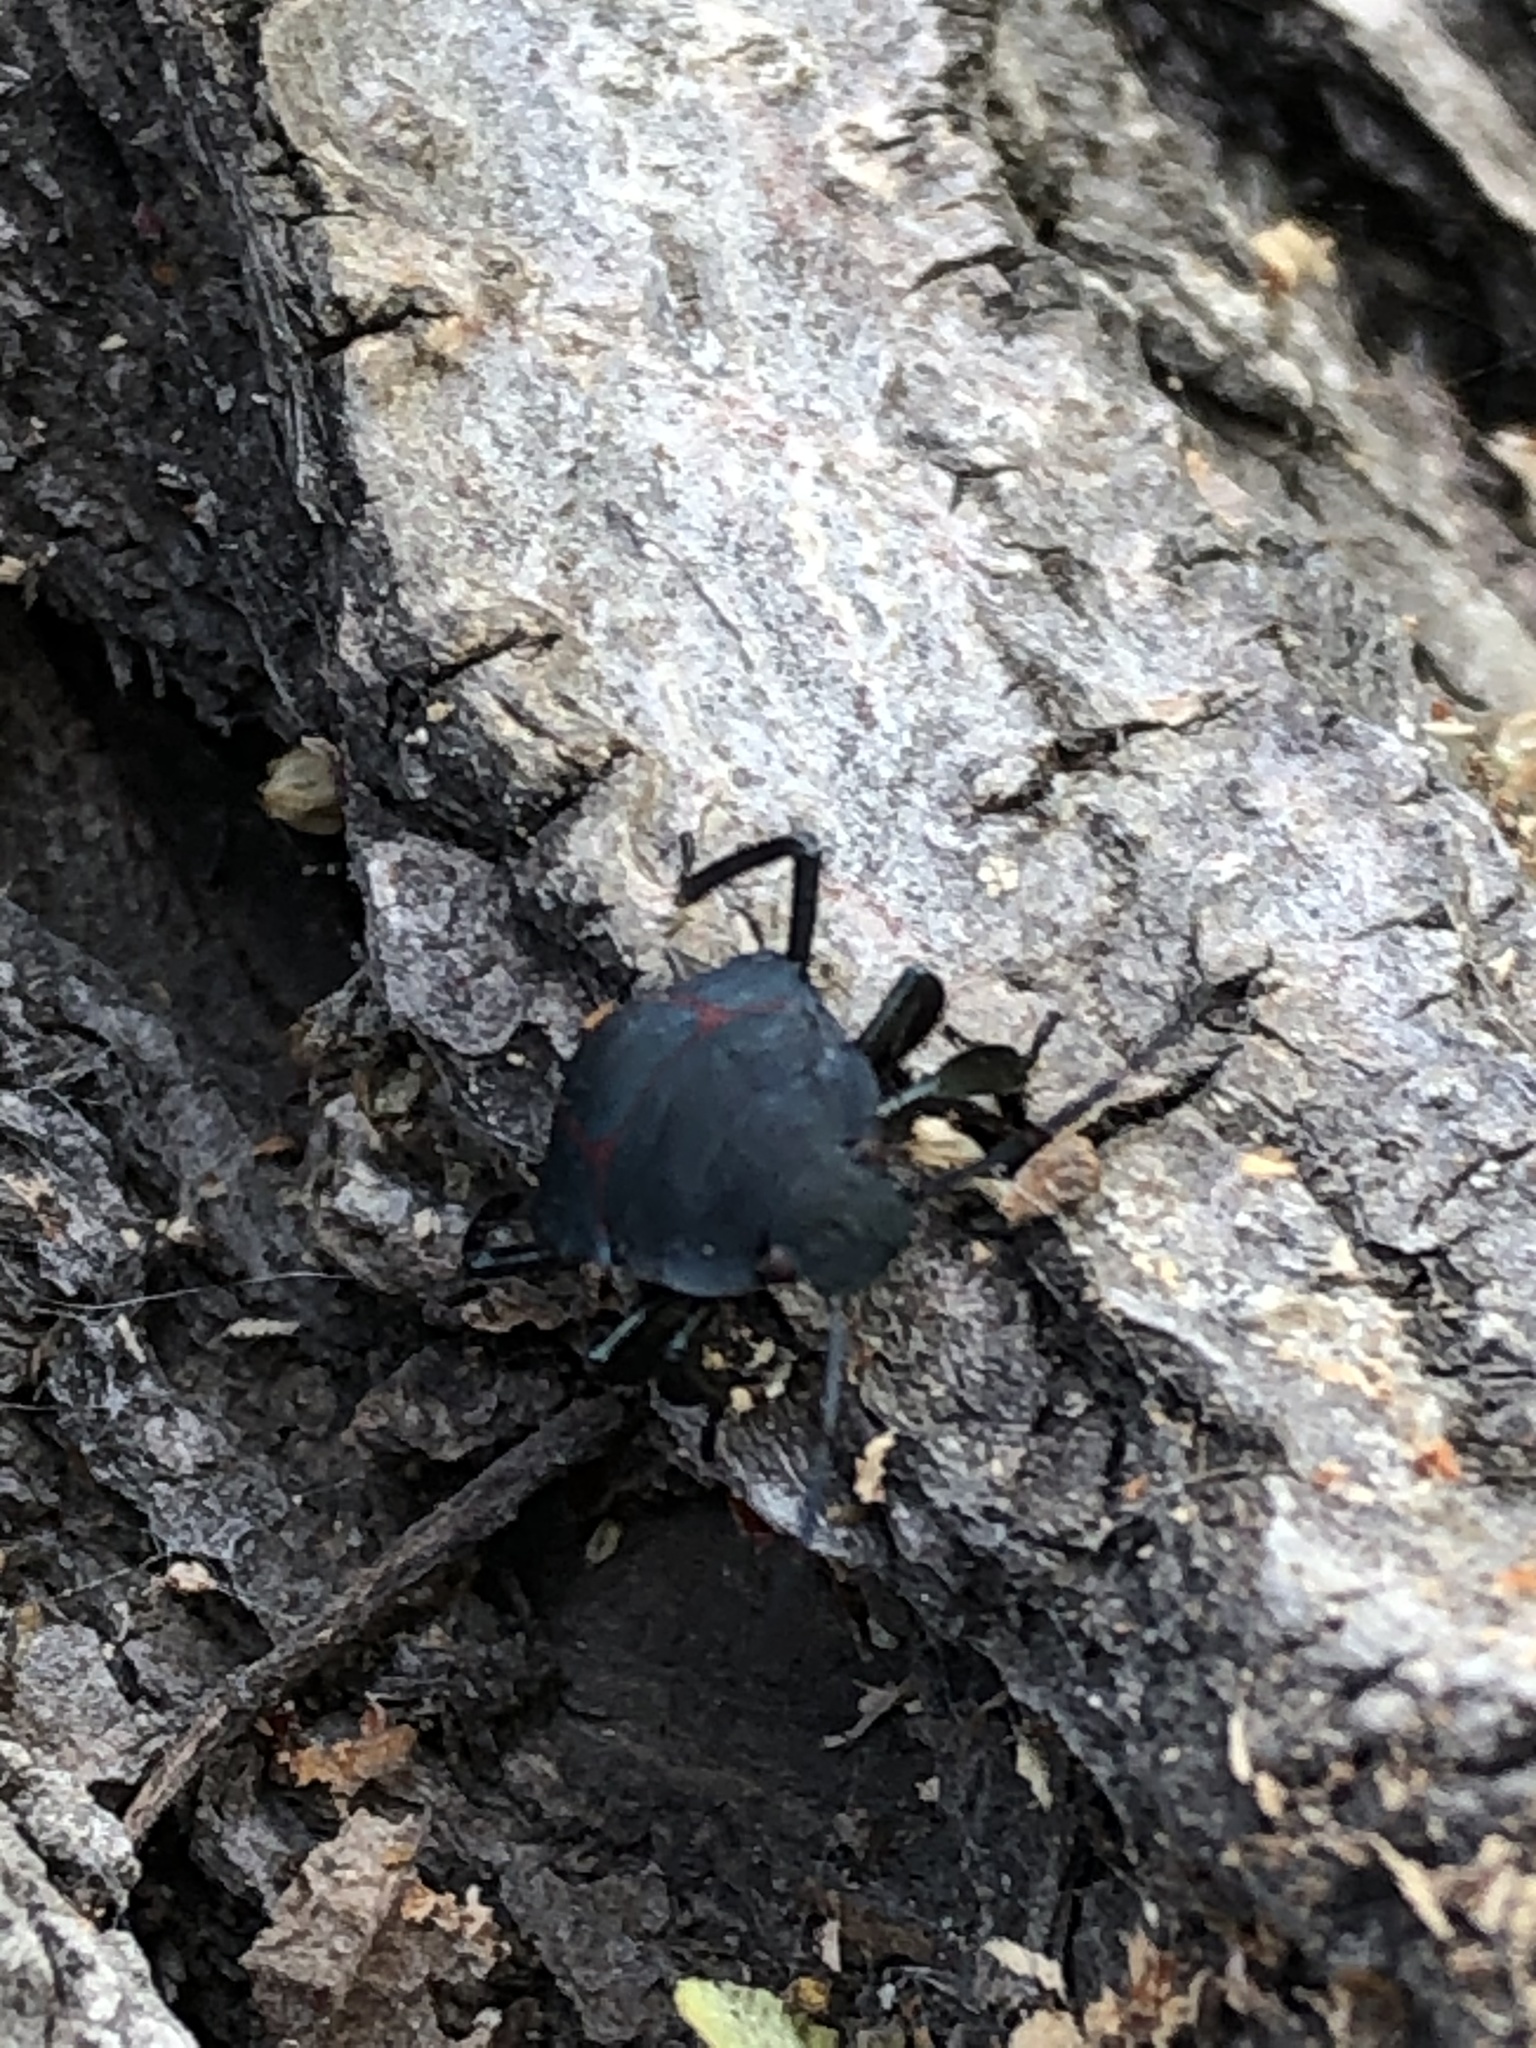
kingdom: Animalia
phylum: Arthropoda
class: Insecta
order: Hemiptera
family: Pentatomidae
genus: Pellaea
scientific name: Pellaea stictica
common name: Stink bug
